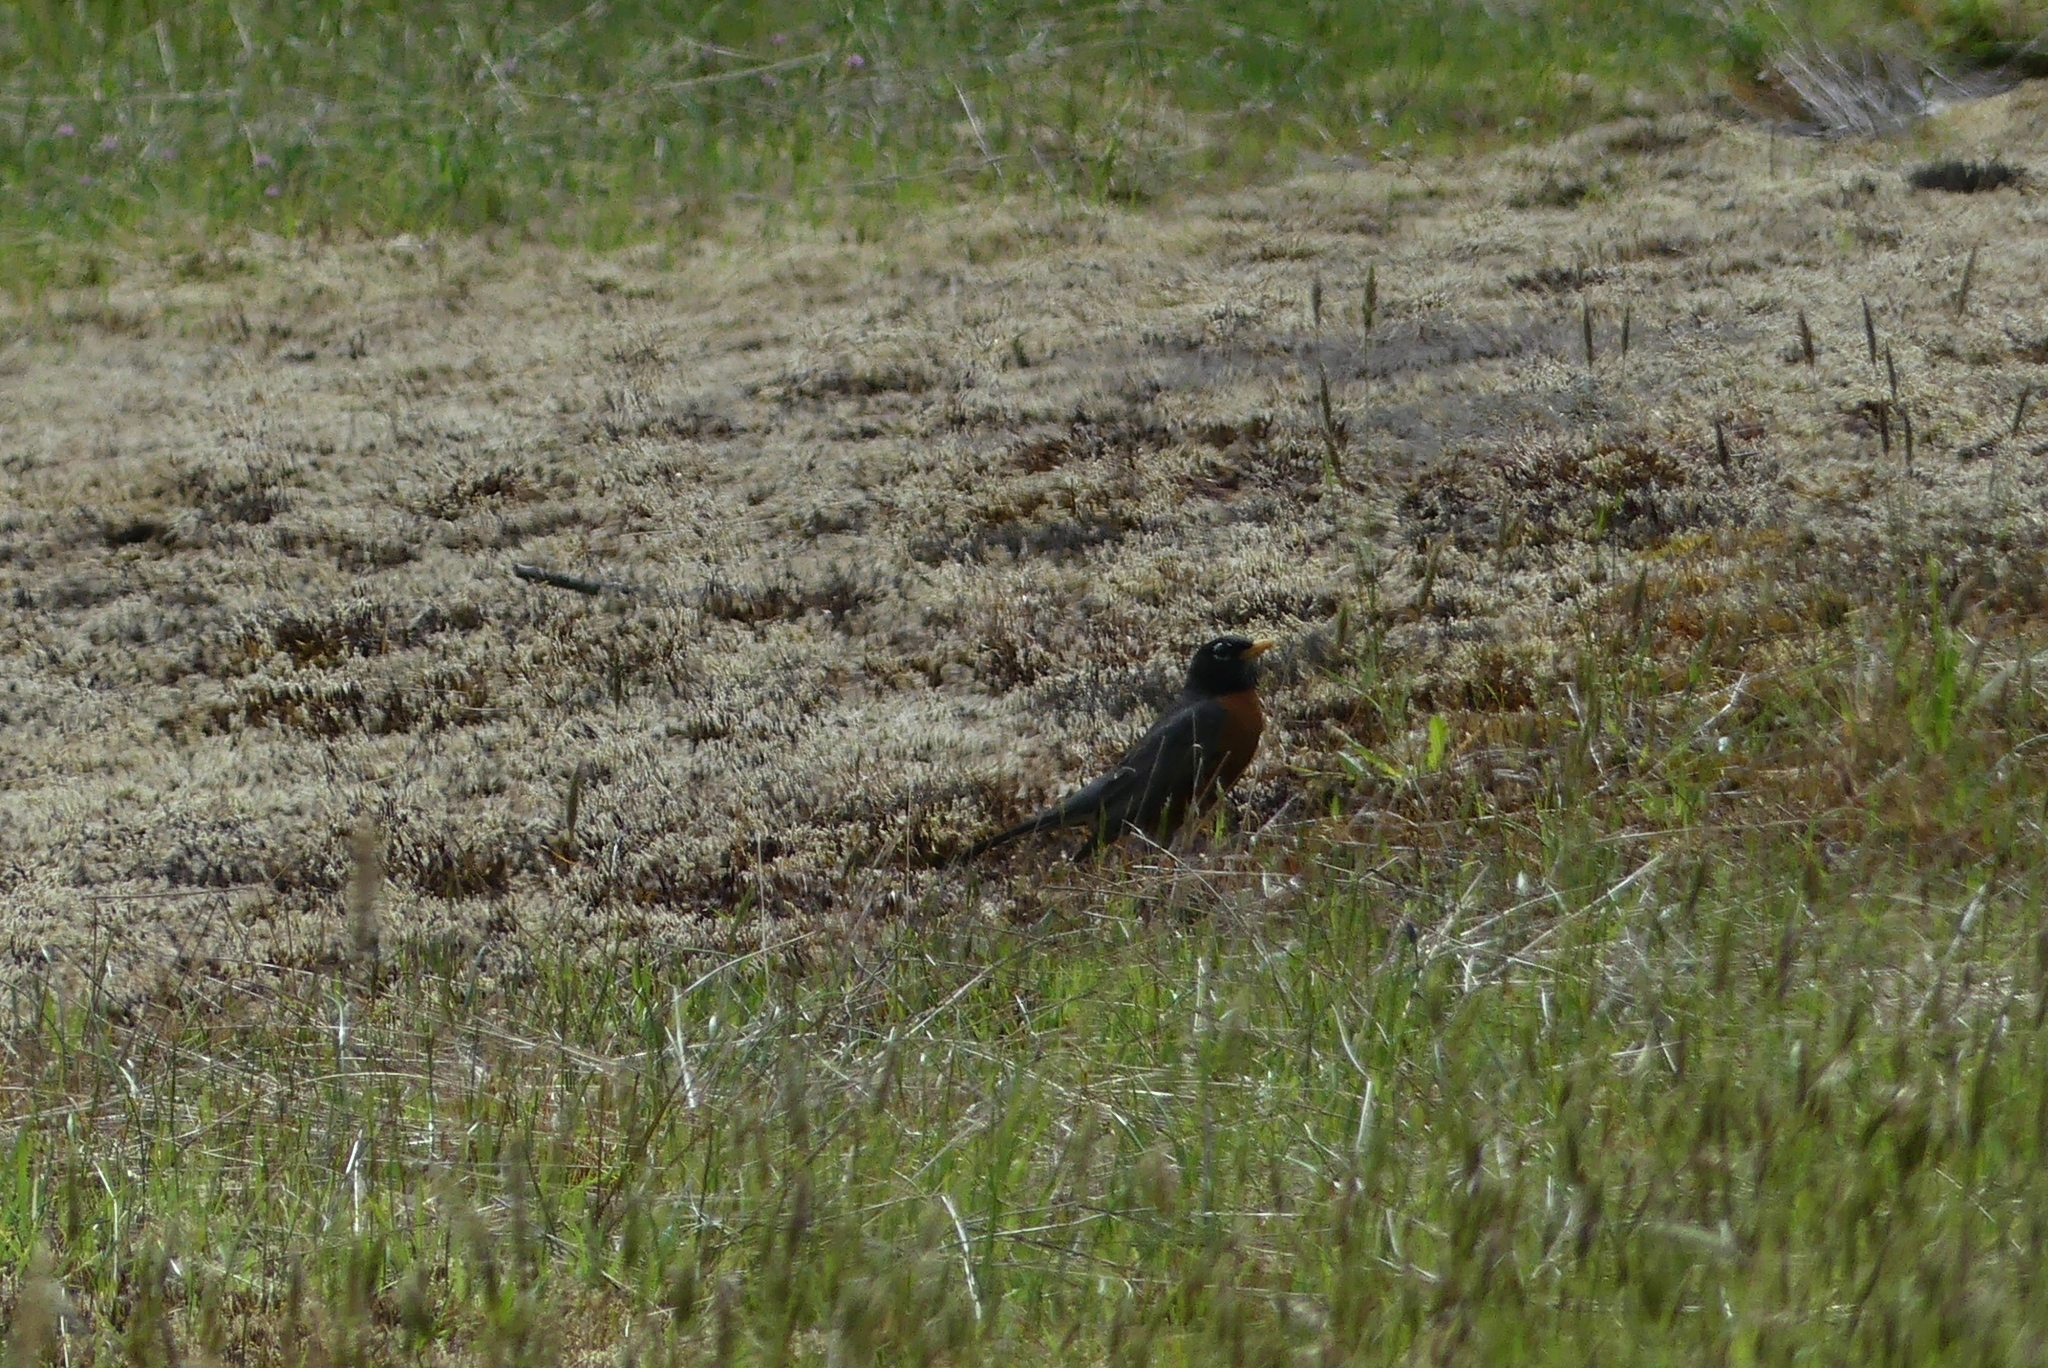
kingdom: Animalia
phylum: Chordata
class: Aves
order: Passeriformes
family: Turdidae
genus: Turdus
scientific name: Turdus migratorius
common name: American robin
